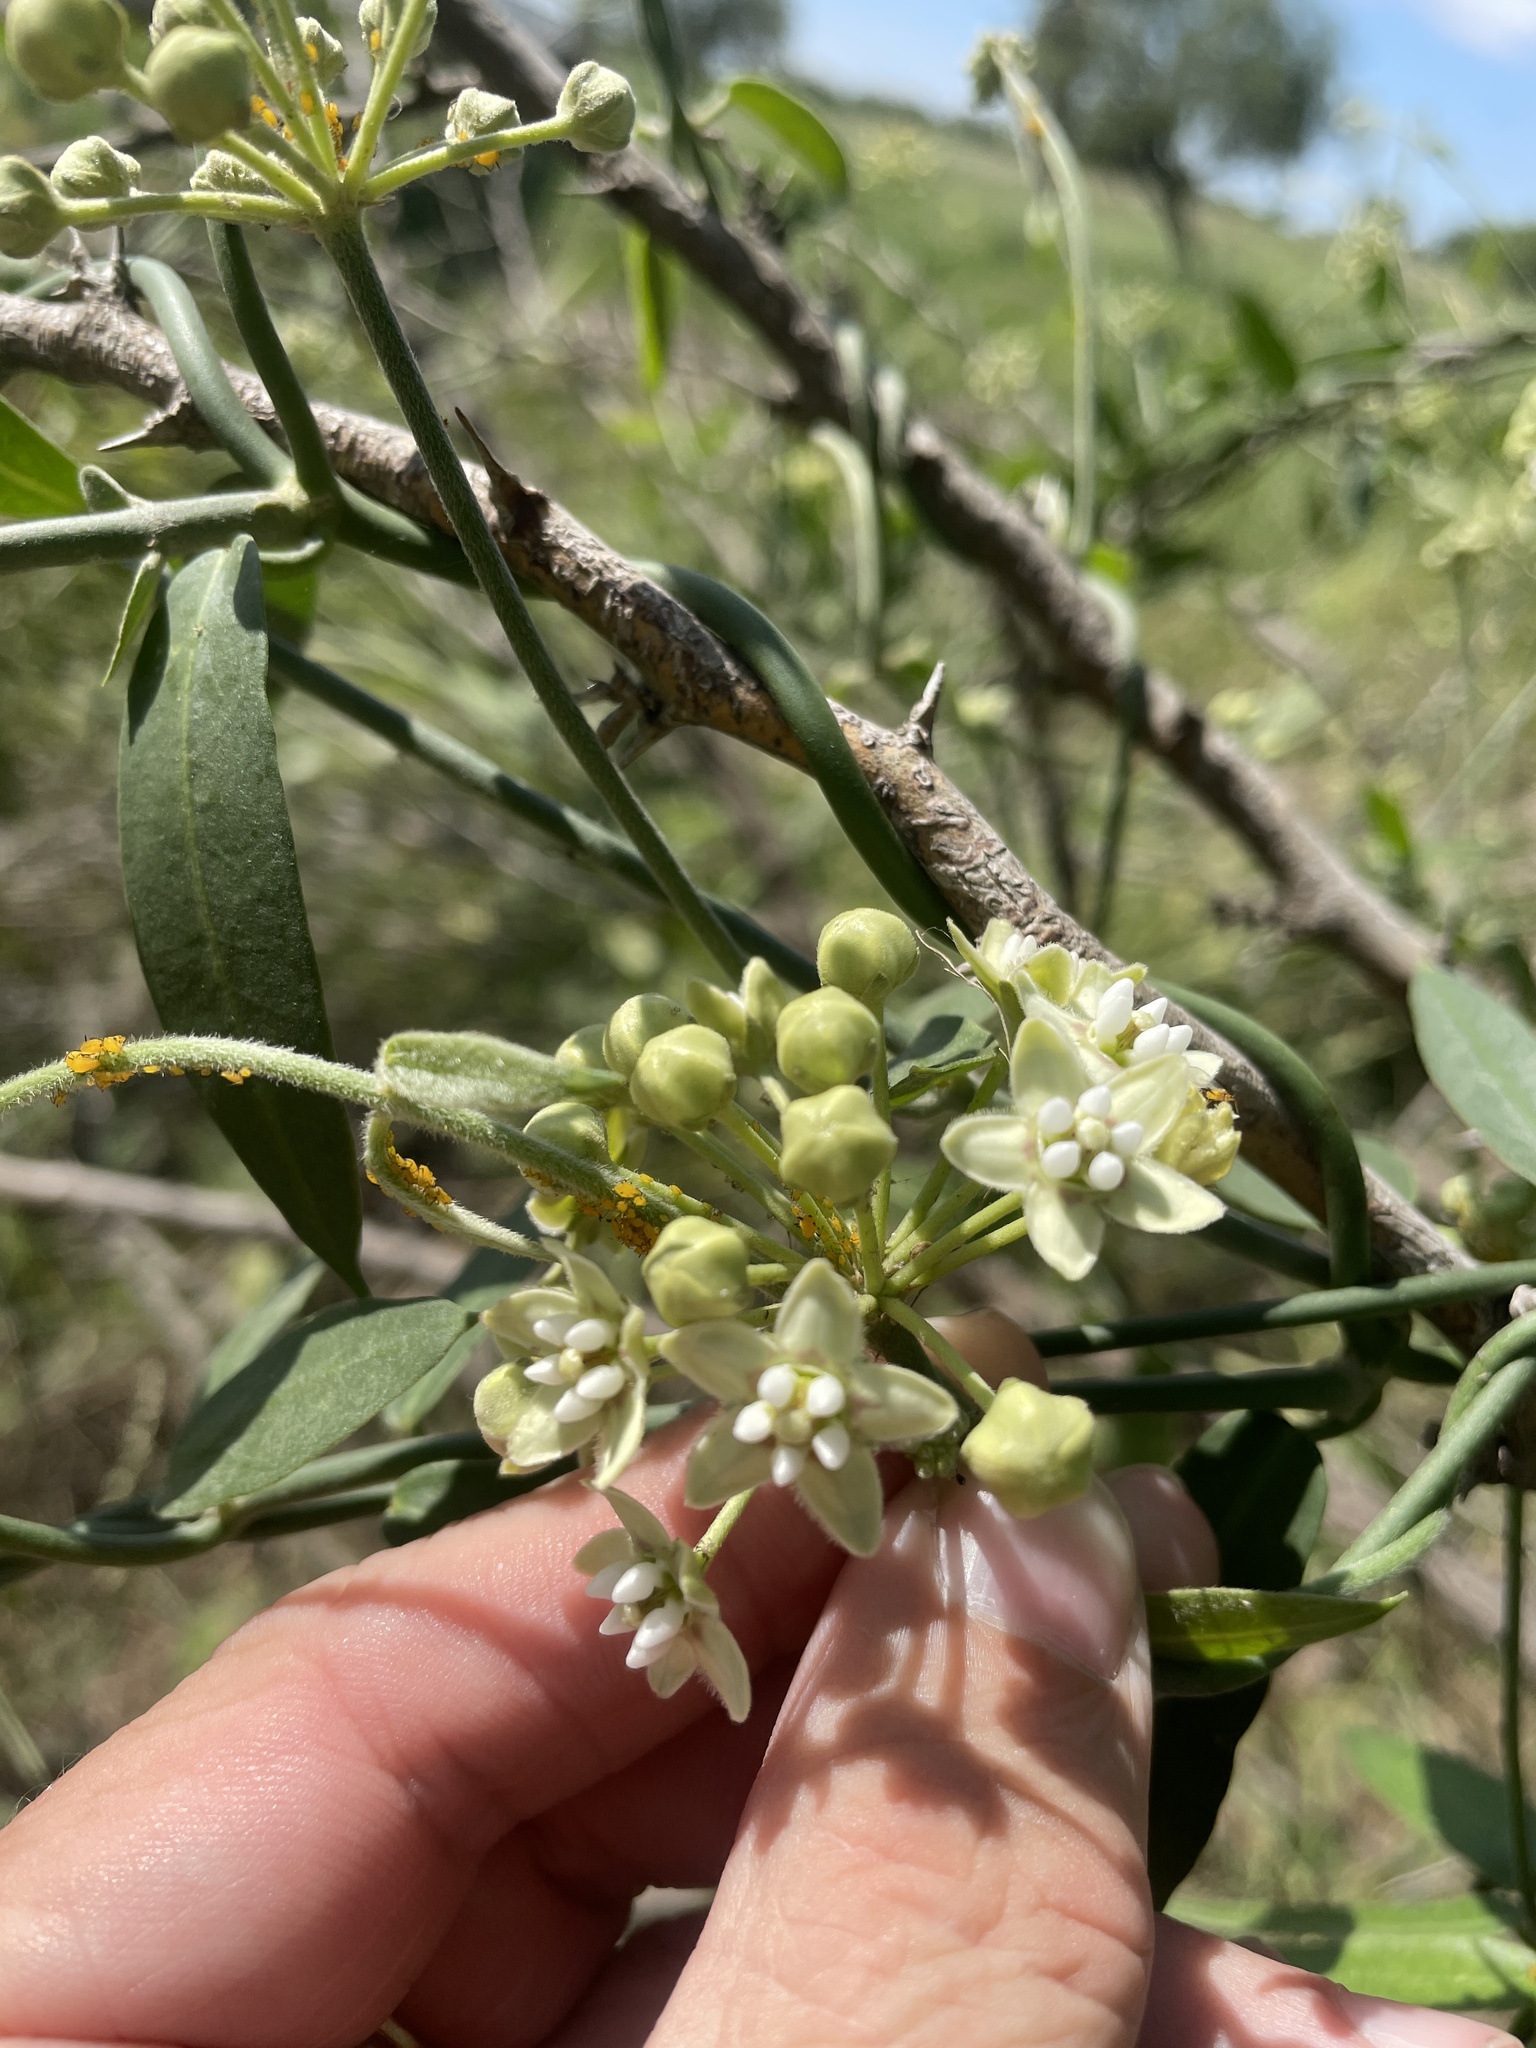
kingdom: Plantae
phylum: Tracheophyta
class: Magnoliopsida
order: Gentianales
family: Apocynaceae
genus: Funastrum
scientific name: Funastrum clausum
